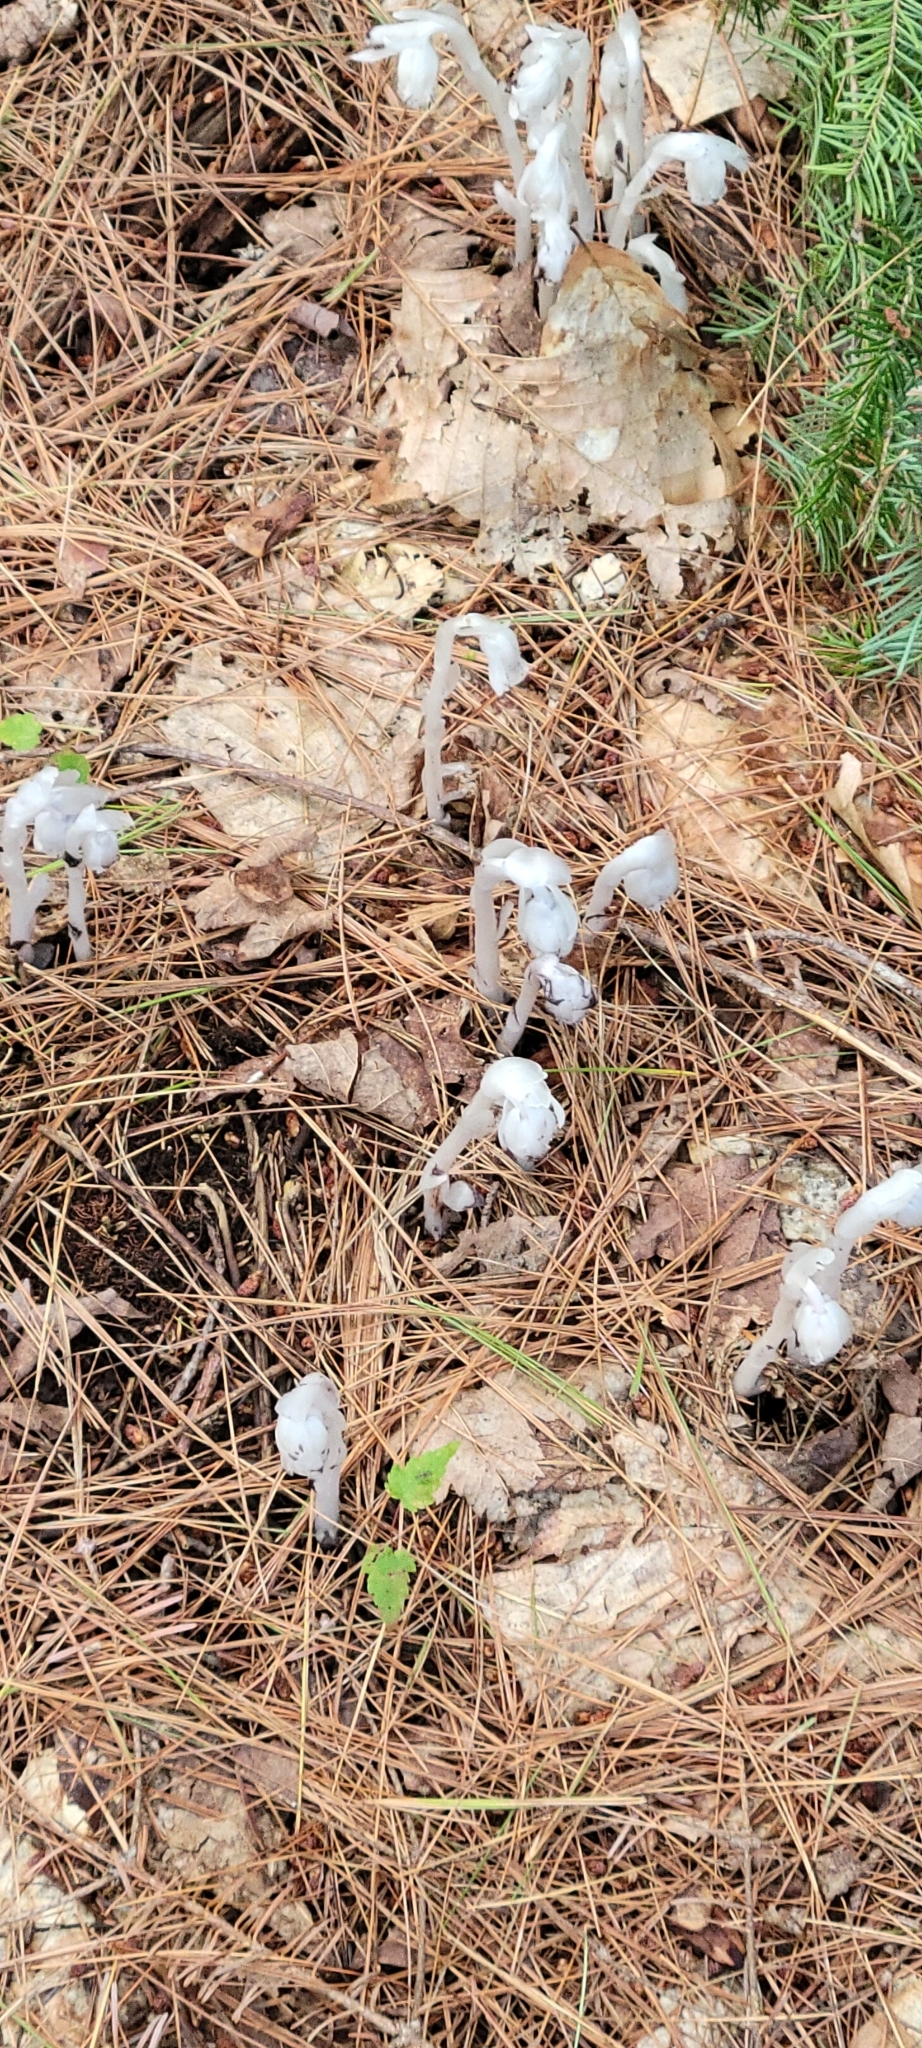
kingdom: Plantae
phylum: Tracheophyta
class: Magnoliopsida
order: Ericales
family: Ericaceae
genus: Monotropa
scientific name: Monotropa uniflora
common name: Convulsion root
